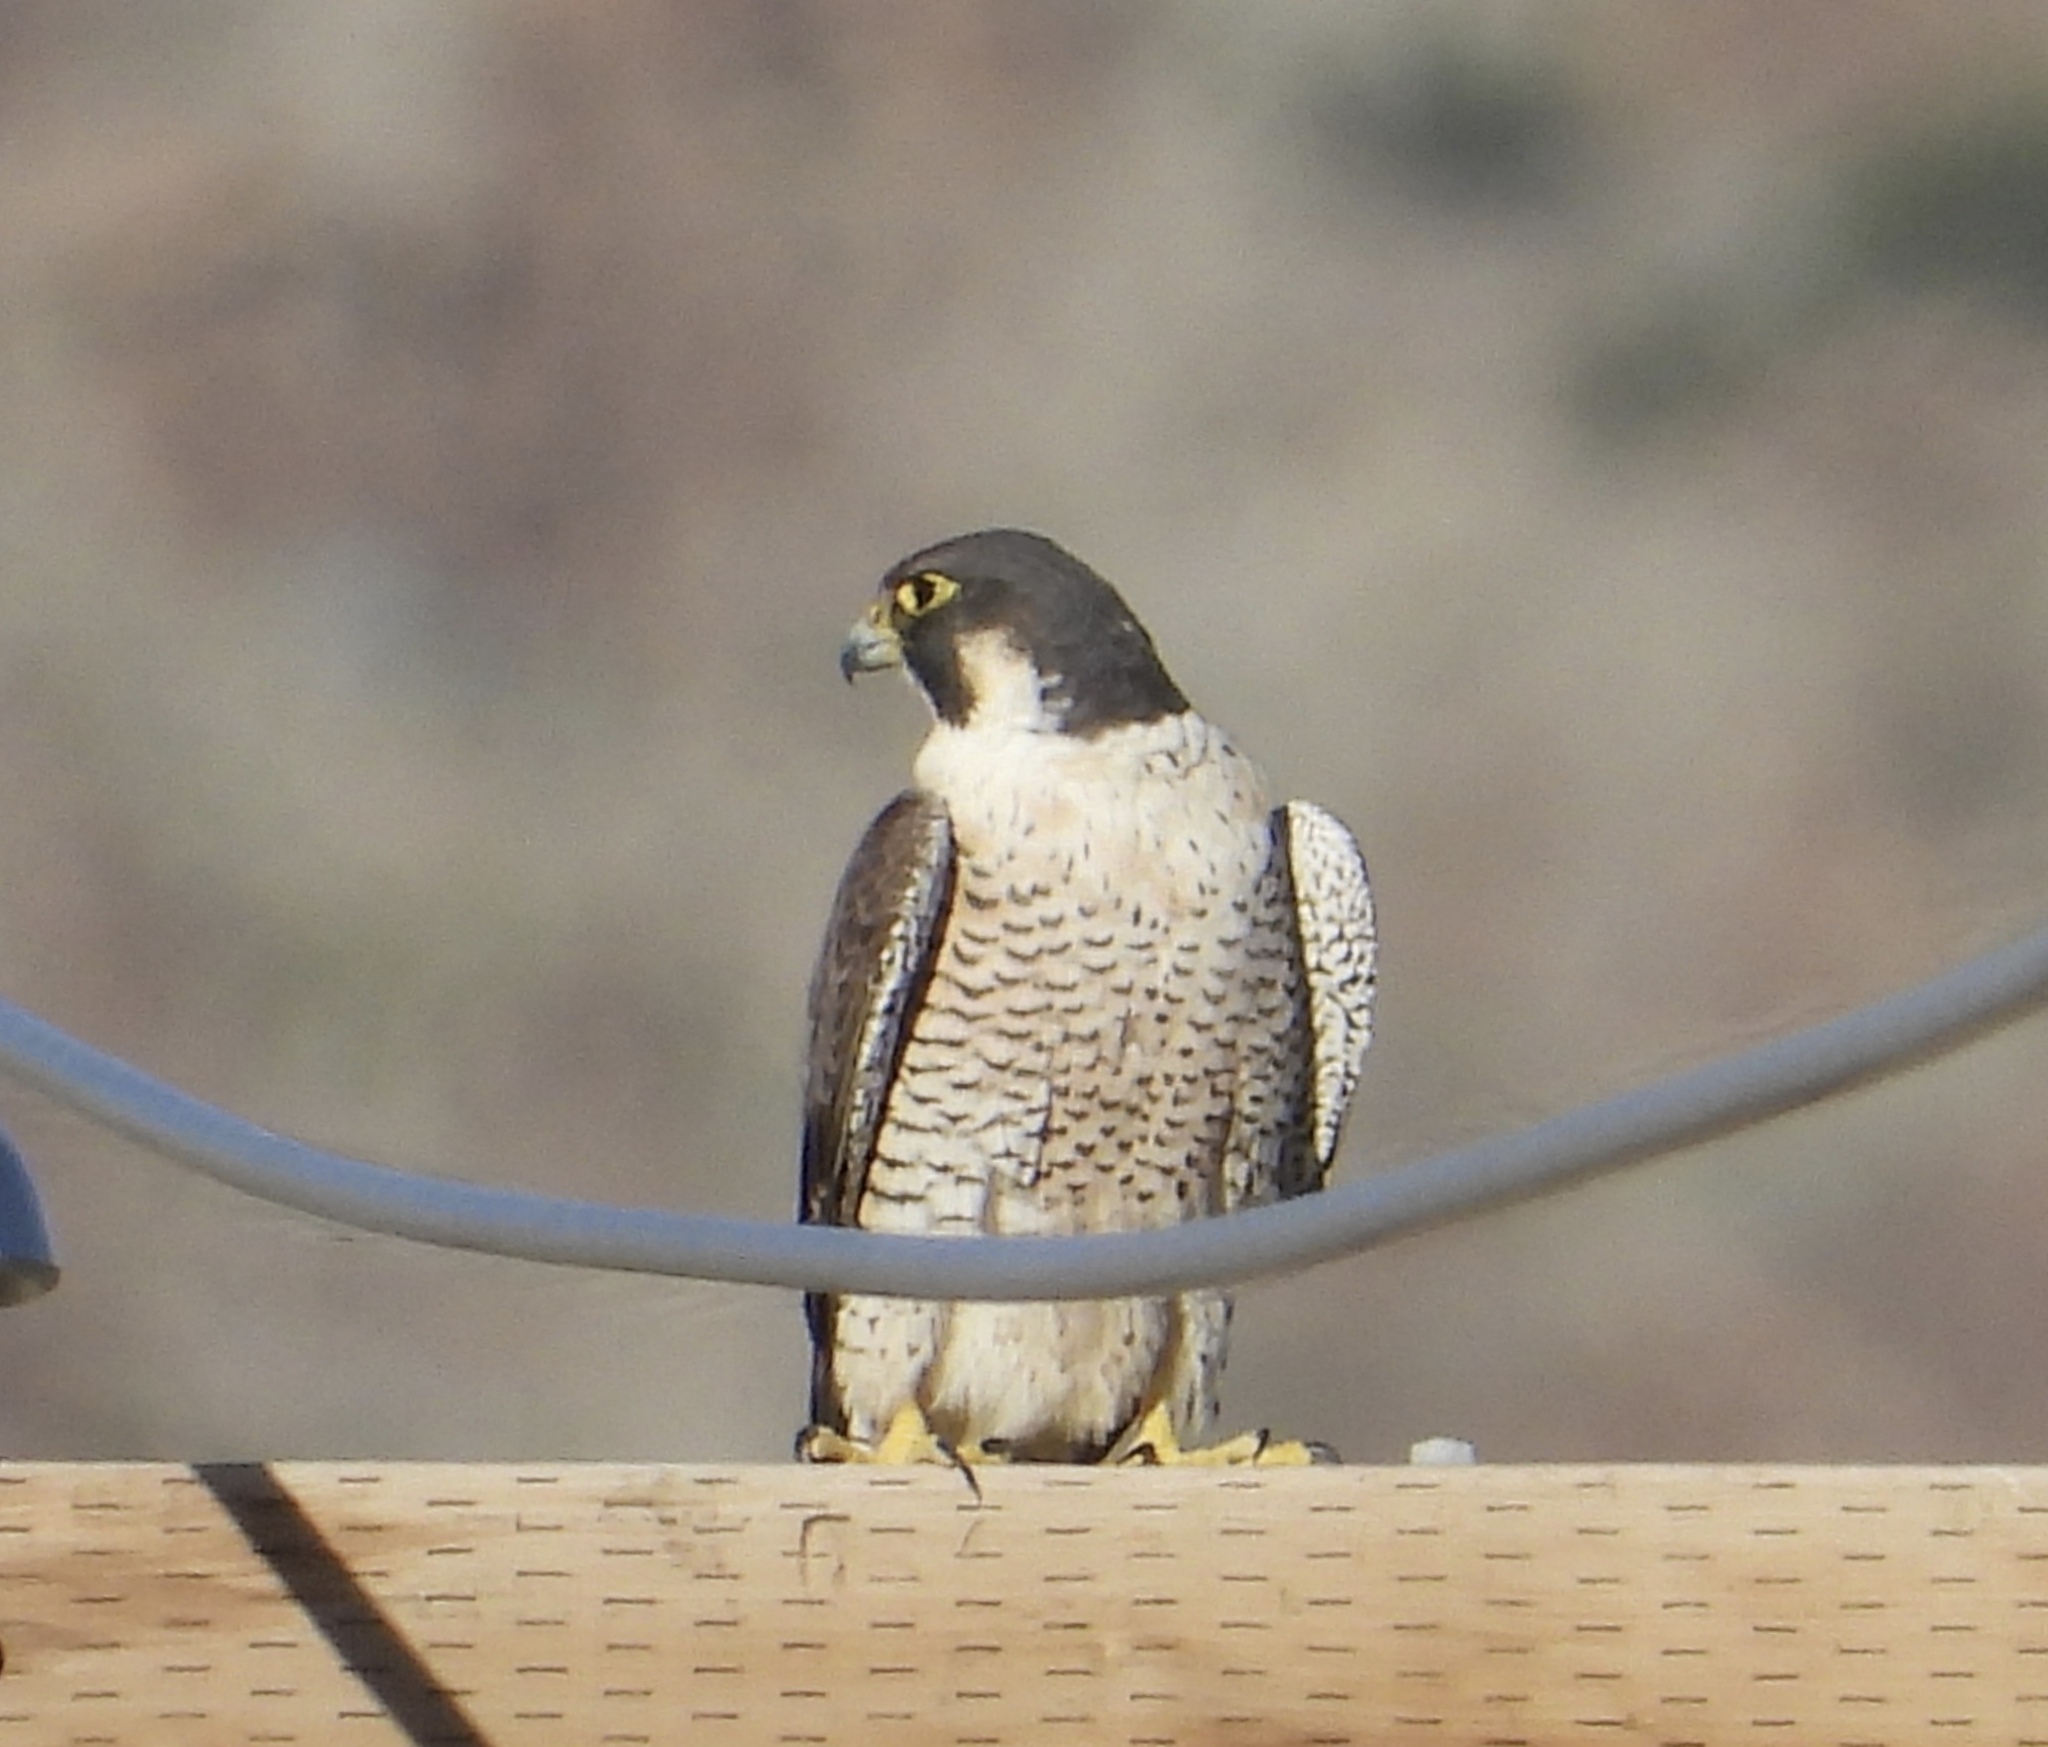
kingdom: Animalia
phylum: Chordata
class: Aves
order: Falconiformes
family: Falconidae
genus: Falco
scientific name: Falco peregrinus
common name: Peregrine falcon
